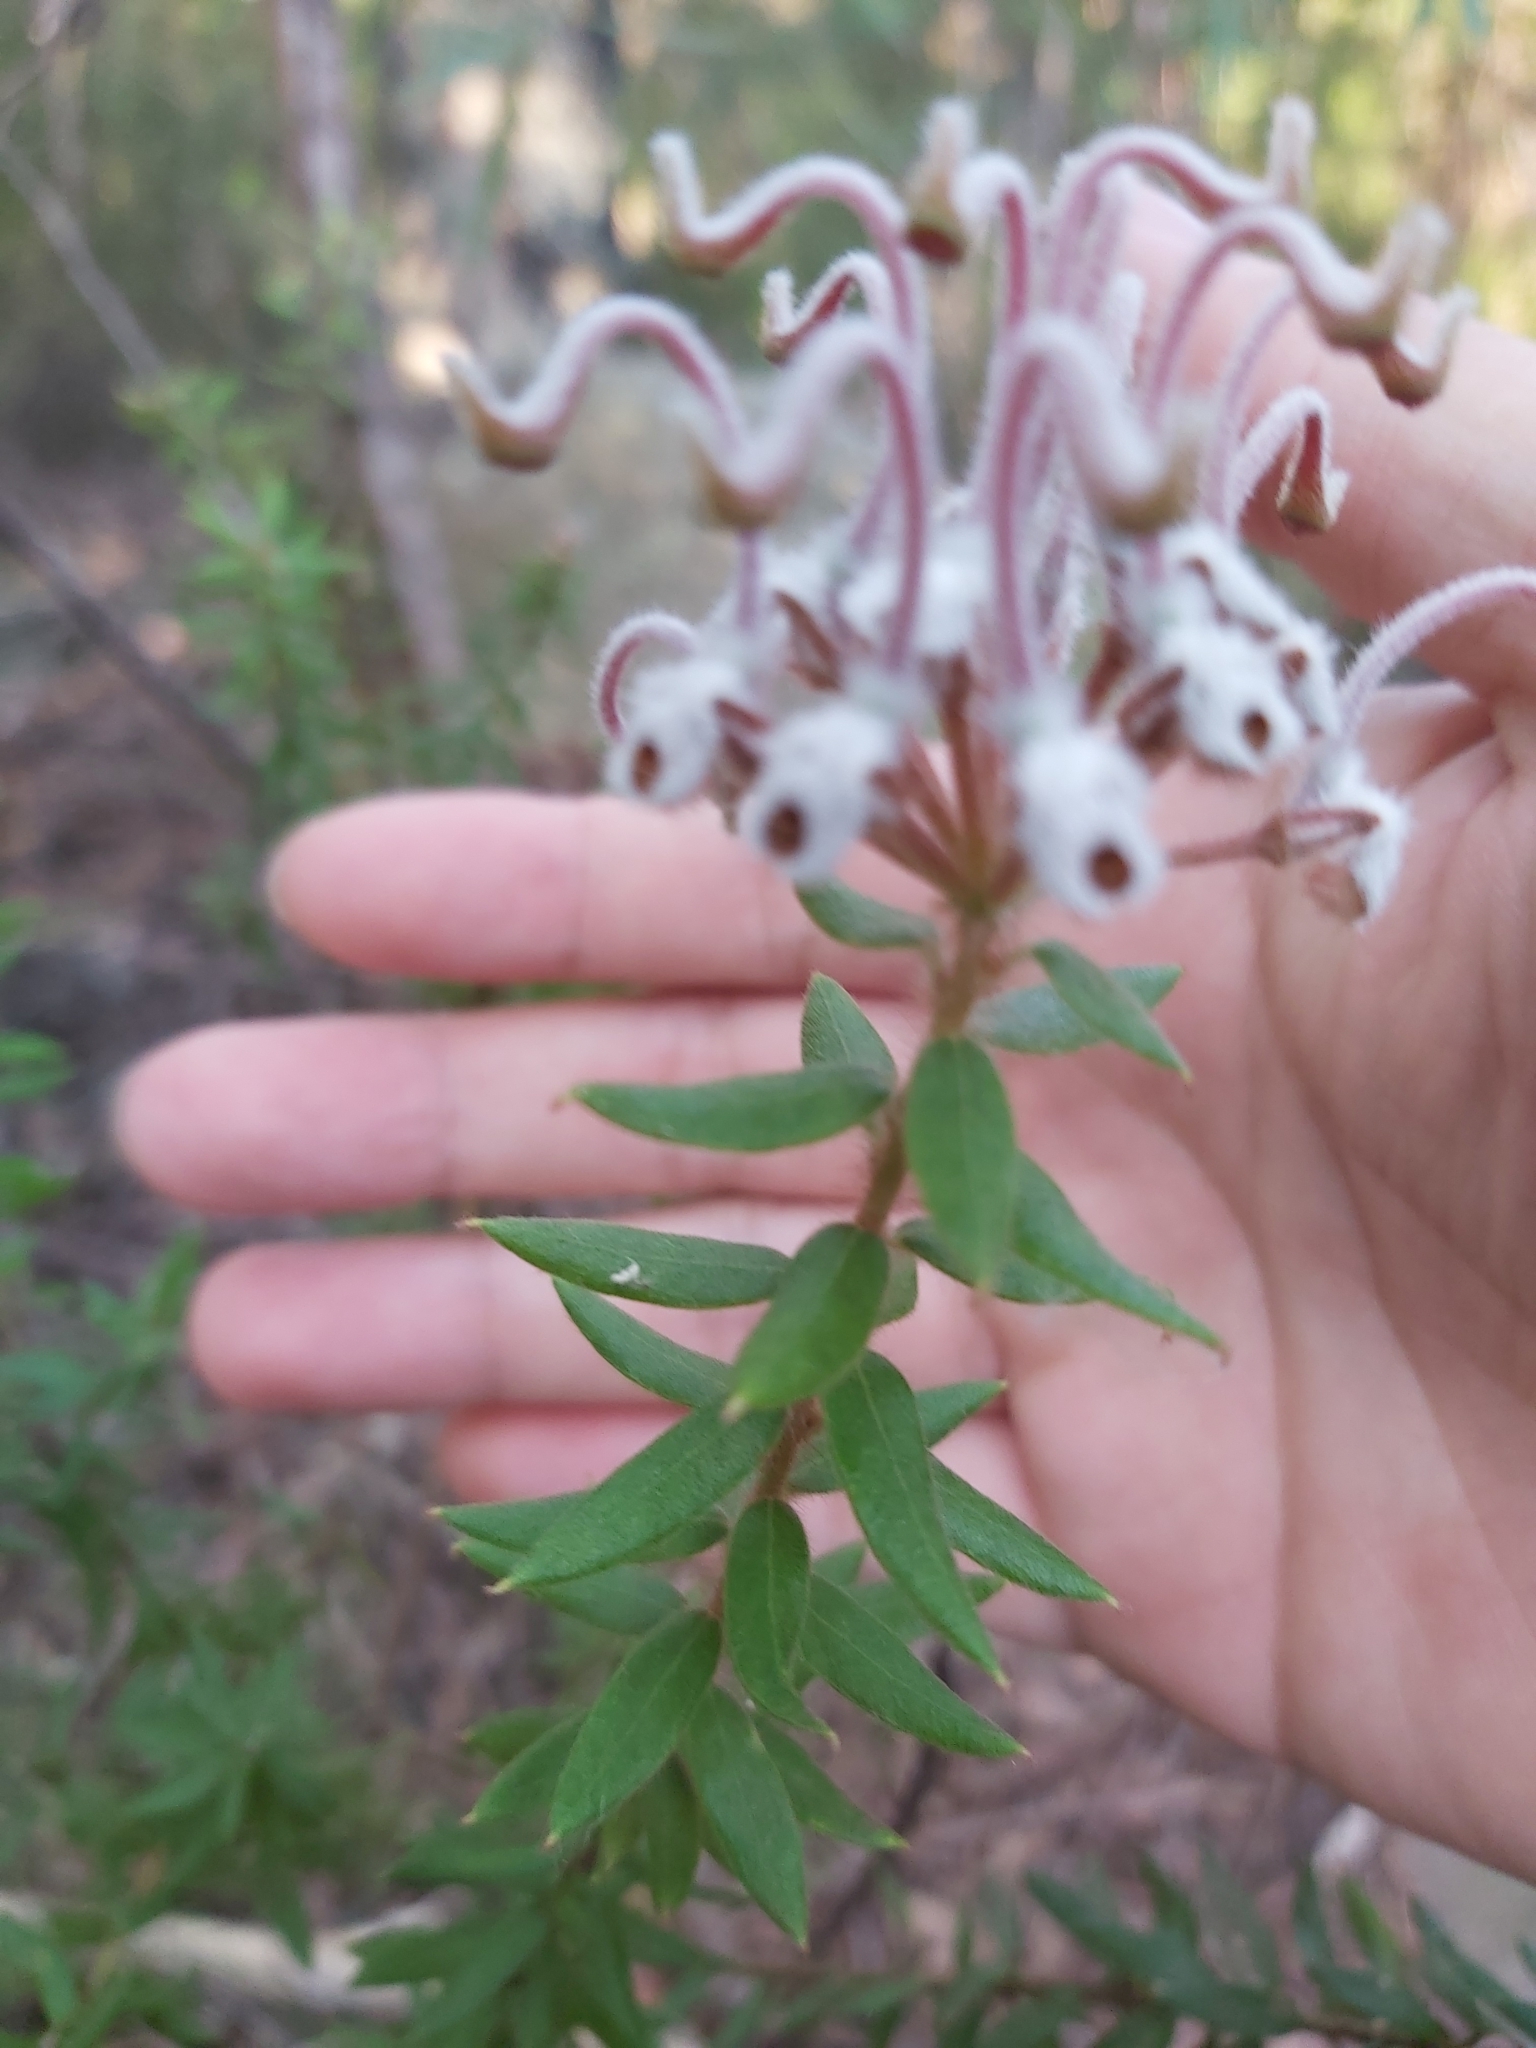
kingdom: Plantae
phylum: Tracheophyta
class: Magnoliopsida
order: Proteales
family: Proteaceae
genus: Grevillea
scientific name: Grevillea buxifolia
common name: Grey spiderflower
